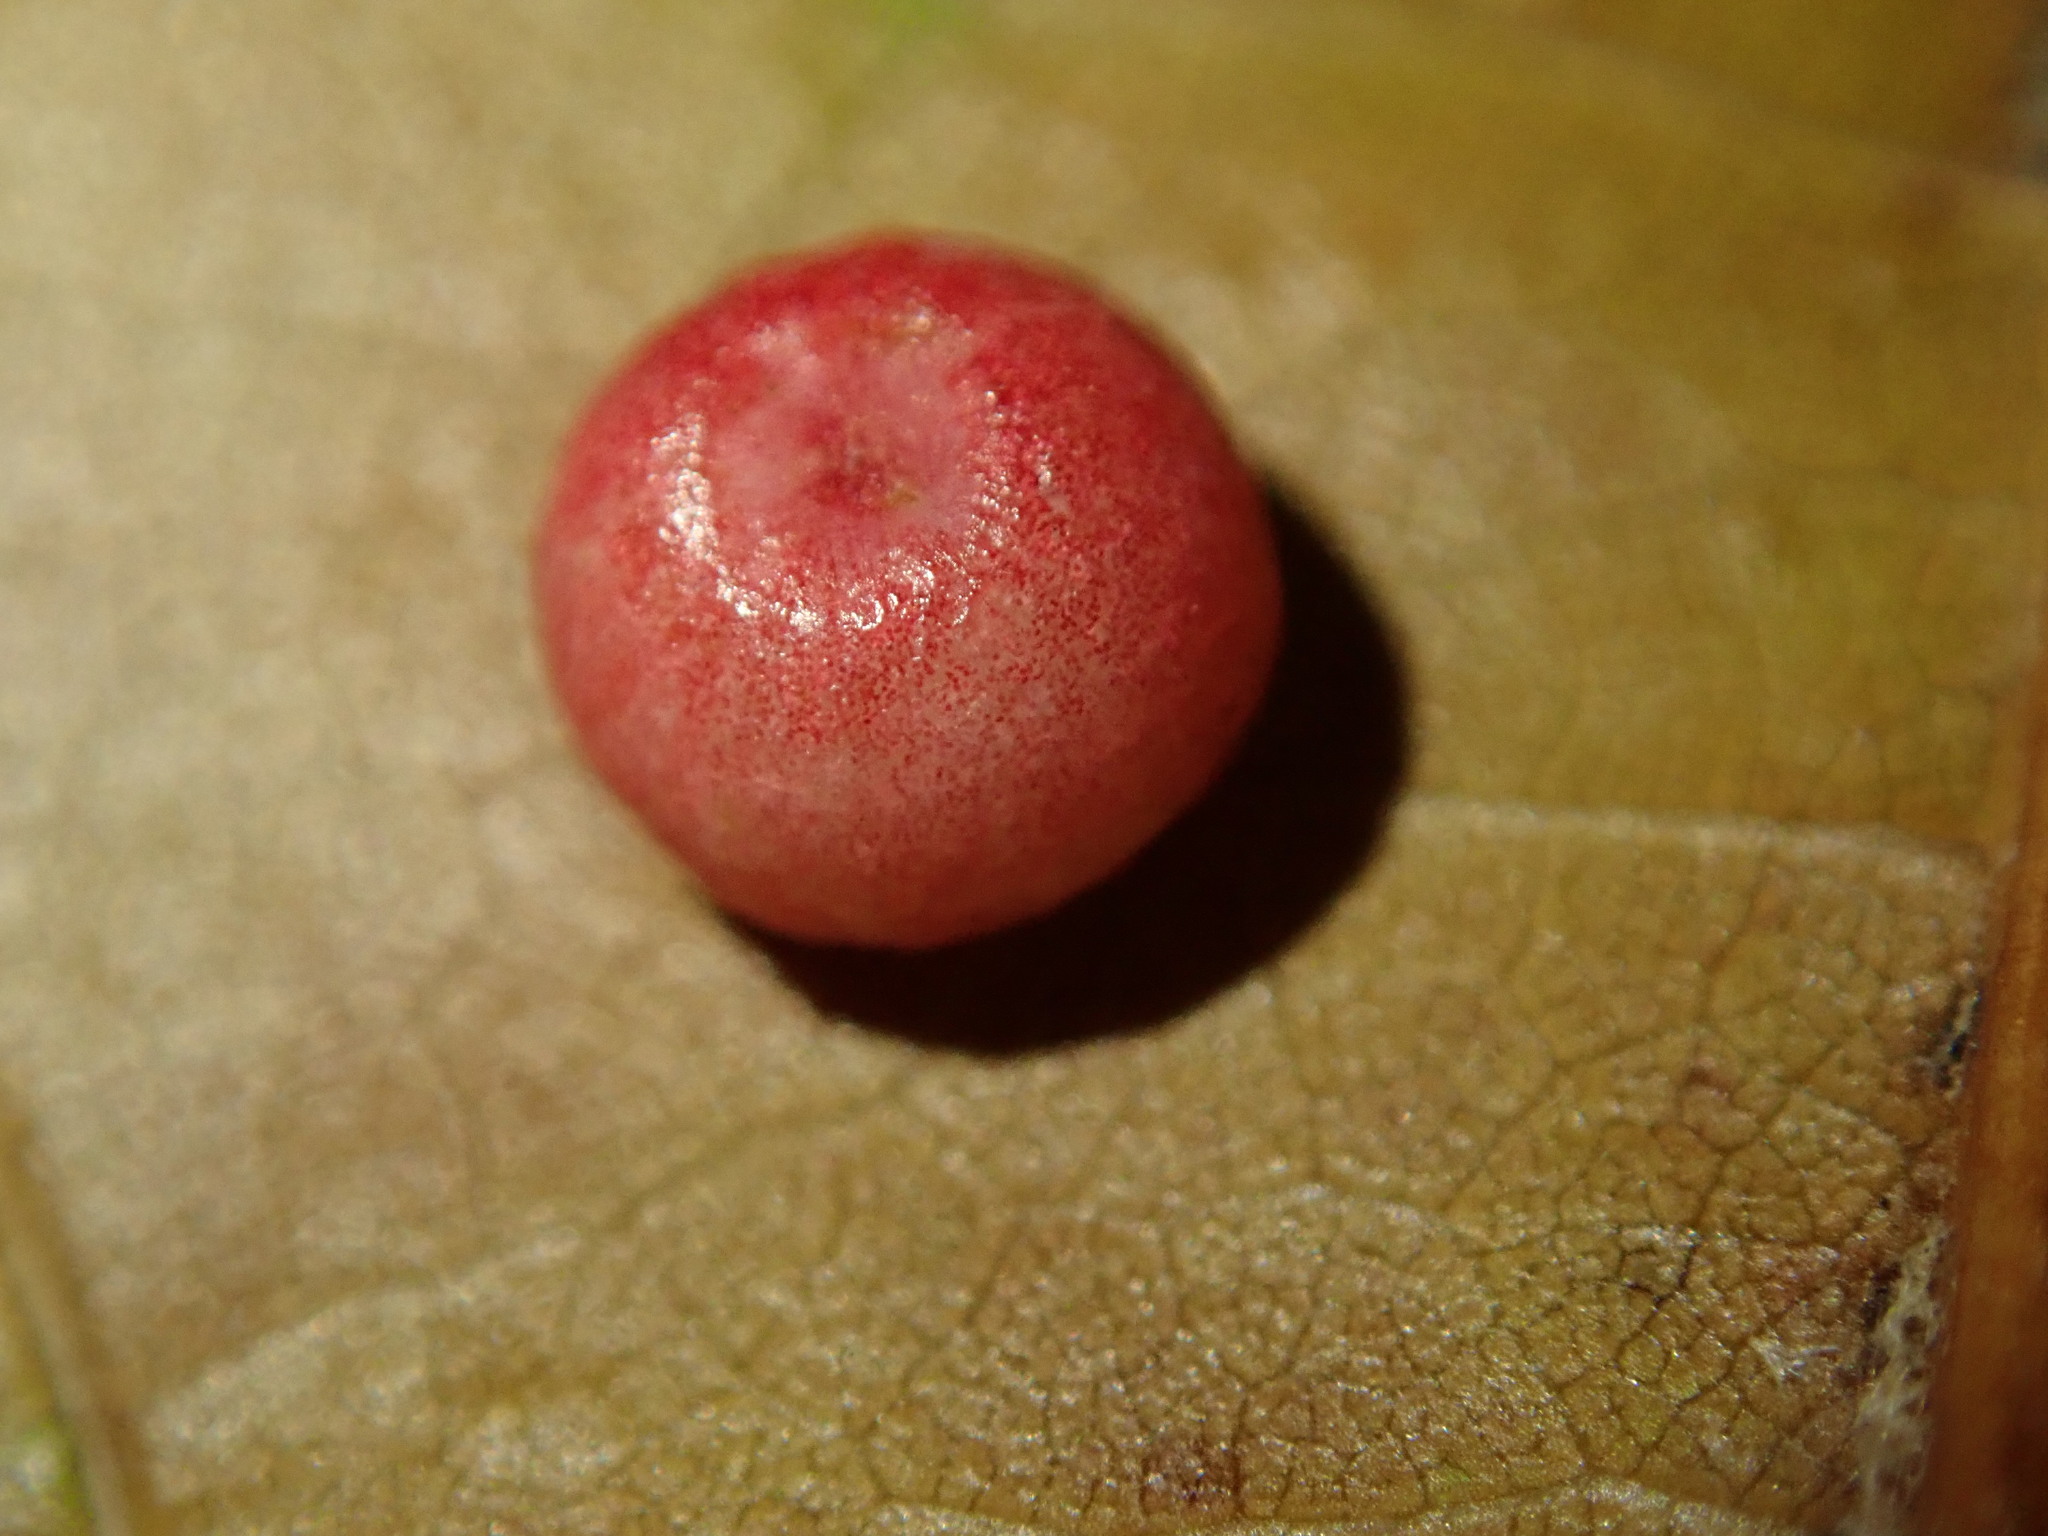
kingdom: Animalia
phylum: Arthropoda
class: Insecta
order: Hymenoptera
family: Cynipidae
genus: Zopheroteras
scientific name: Zopheroteras
